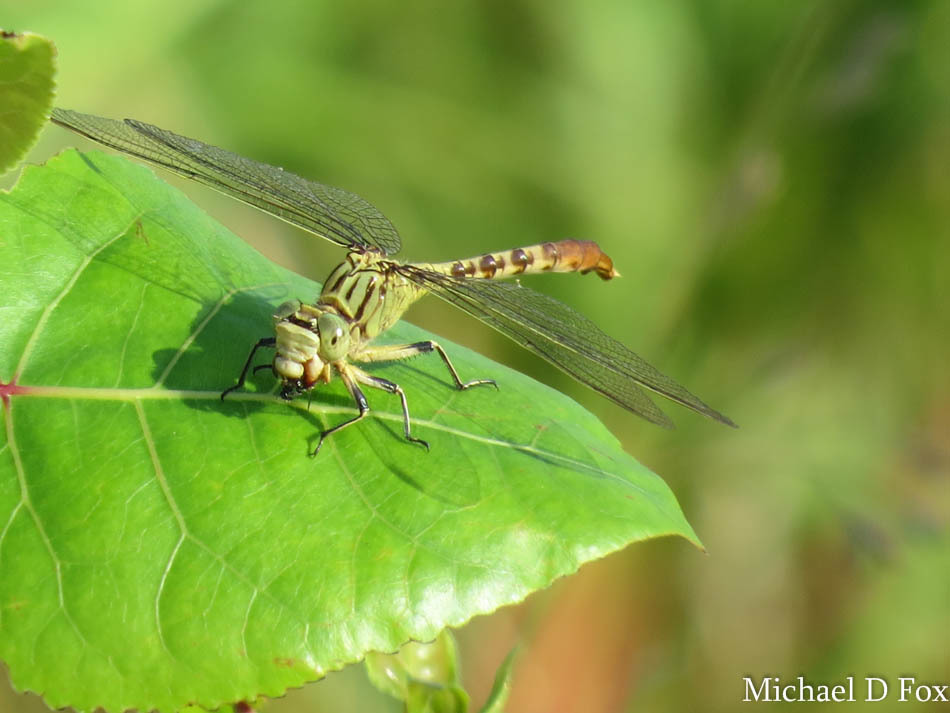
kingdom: Animalia
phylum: Arthropoda
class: Insecta
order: Odonata
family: Gomphidae
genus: Arigomphus
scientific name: Arigomphus submedianus
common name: Jade clubtail
